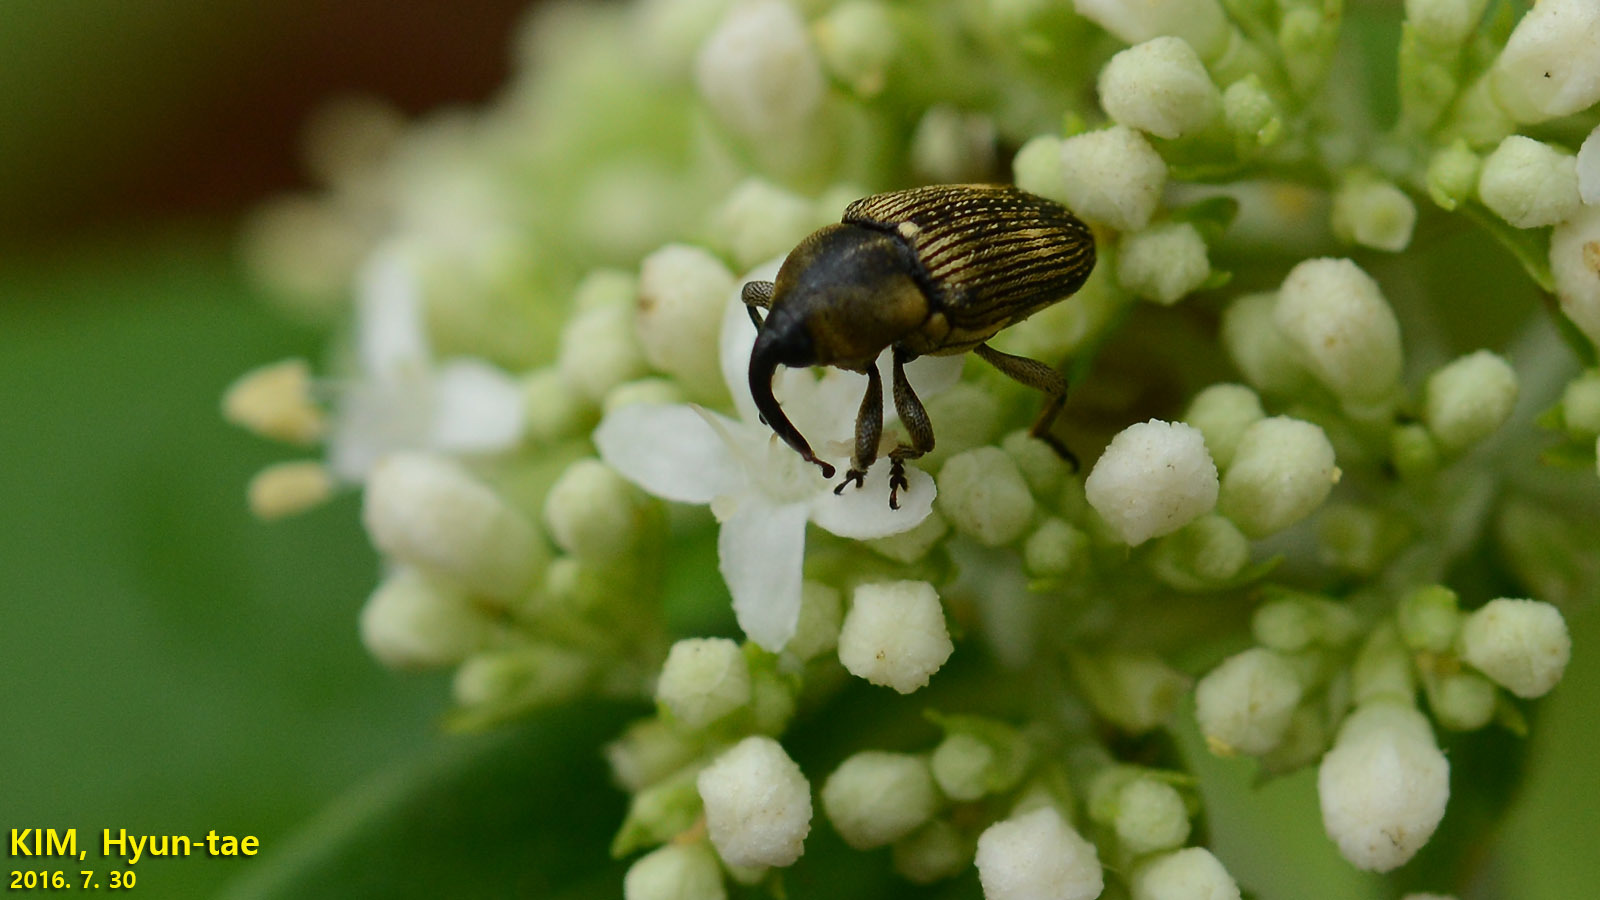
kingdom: Animalia
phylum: Arthropoda
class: Insecta
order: Coleoptera
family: Curculionidae
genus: Anthinobaris
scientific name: Anthinobaris dispilota
